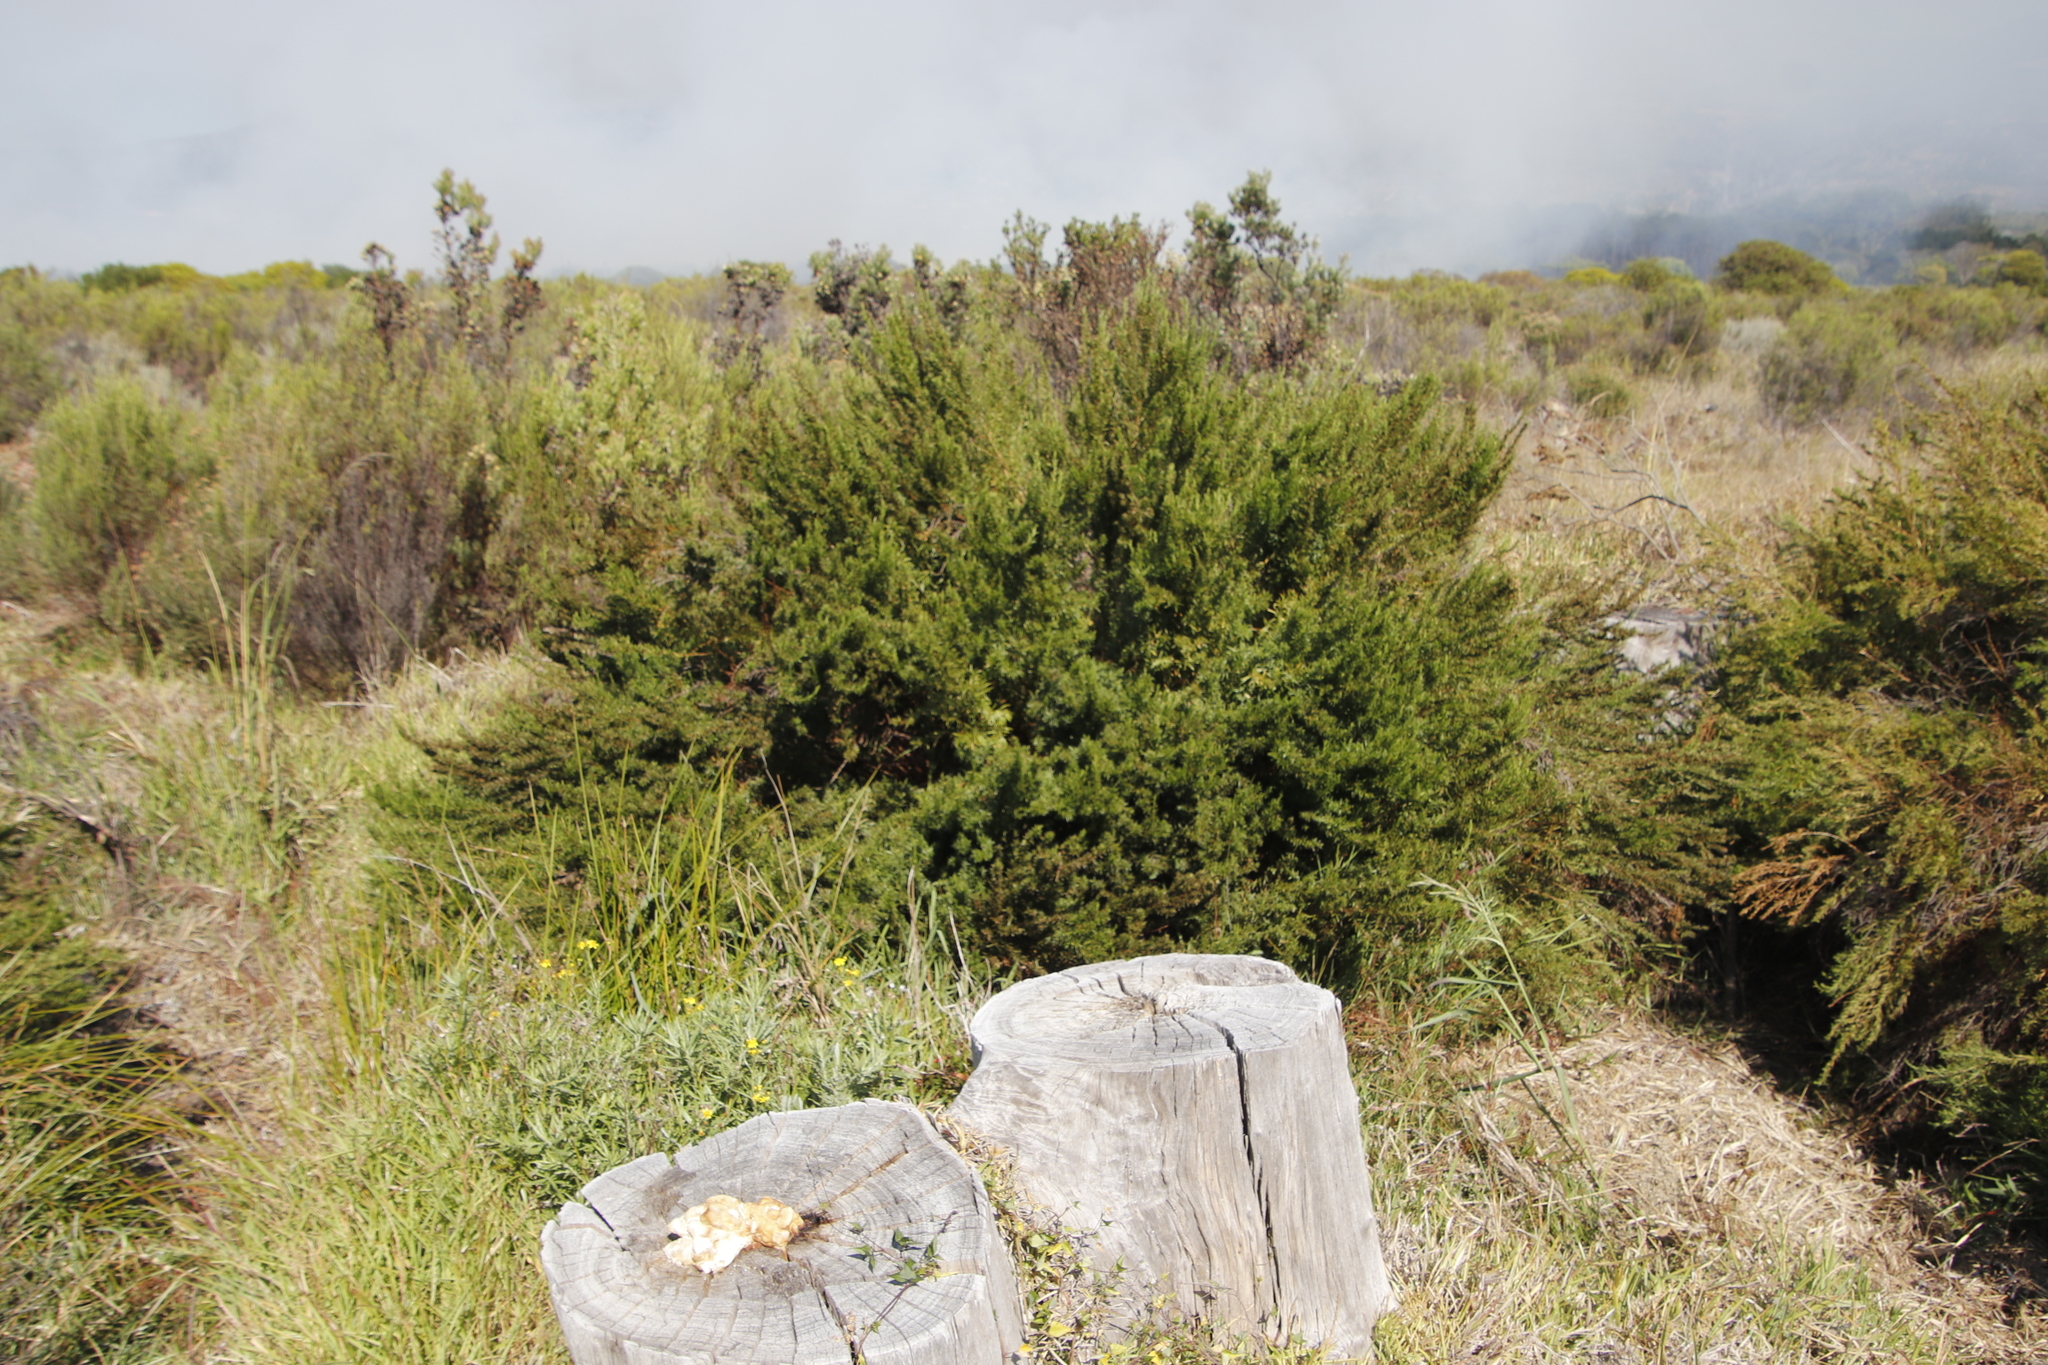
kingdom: Plantae
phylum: Tracheophyta
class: Magnoliopsida
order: Rosales
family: Rosaceae
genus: Cliffortia
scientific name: Cliffortia strobilifera
